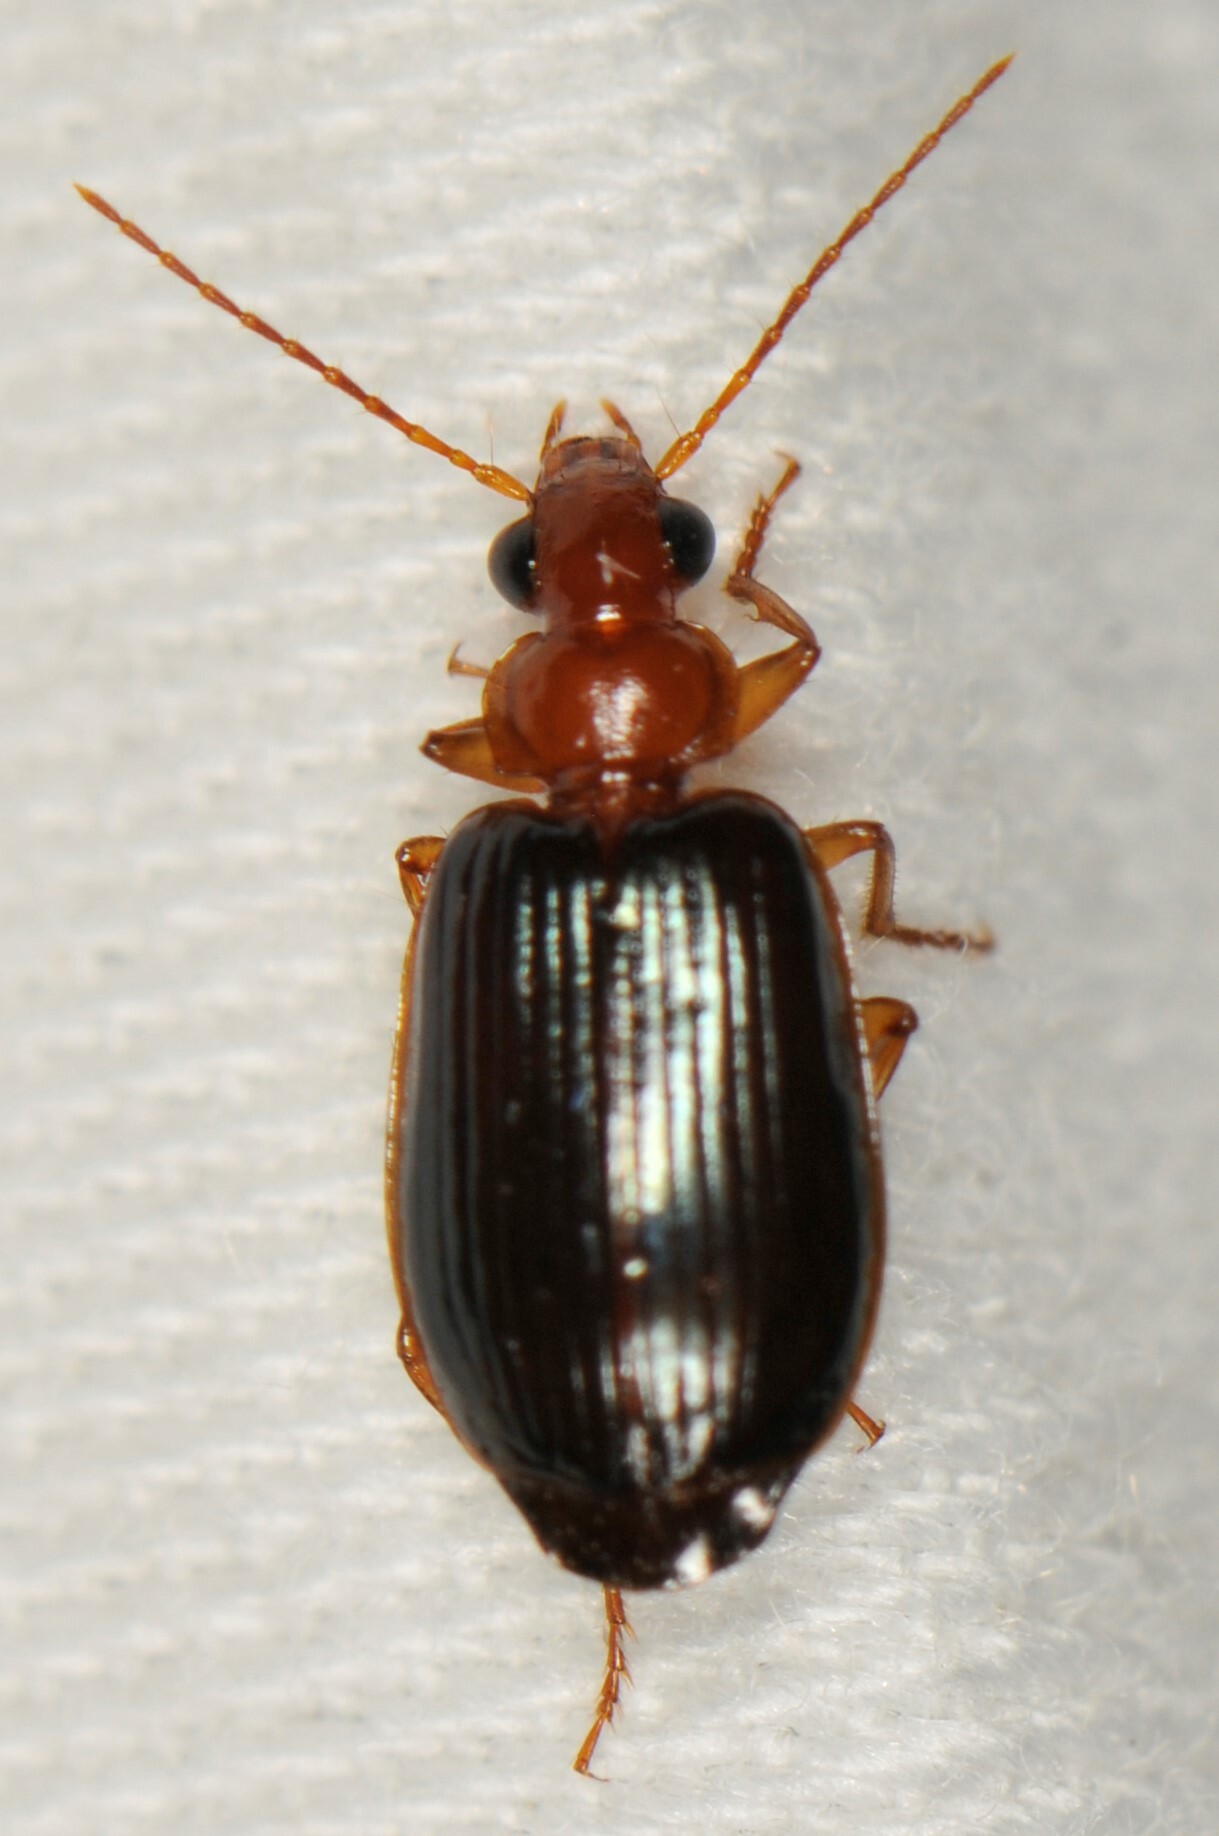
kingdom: Animalia
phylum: Arthropoda
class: Insecta
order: Coleoptera
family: Carabidae
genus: Lebia
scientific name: Lebia rufopleura
